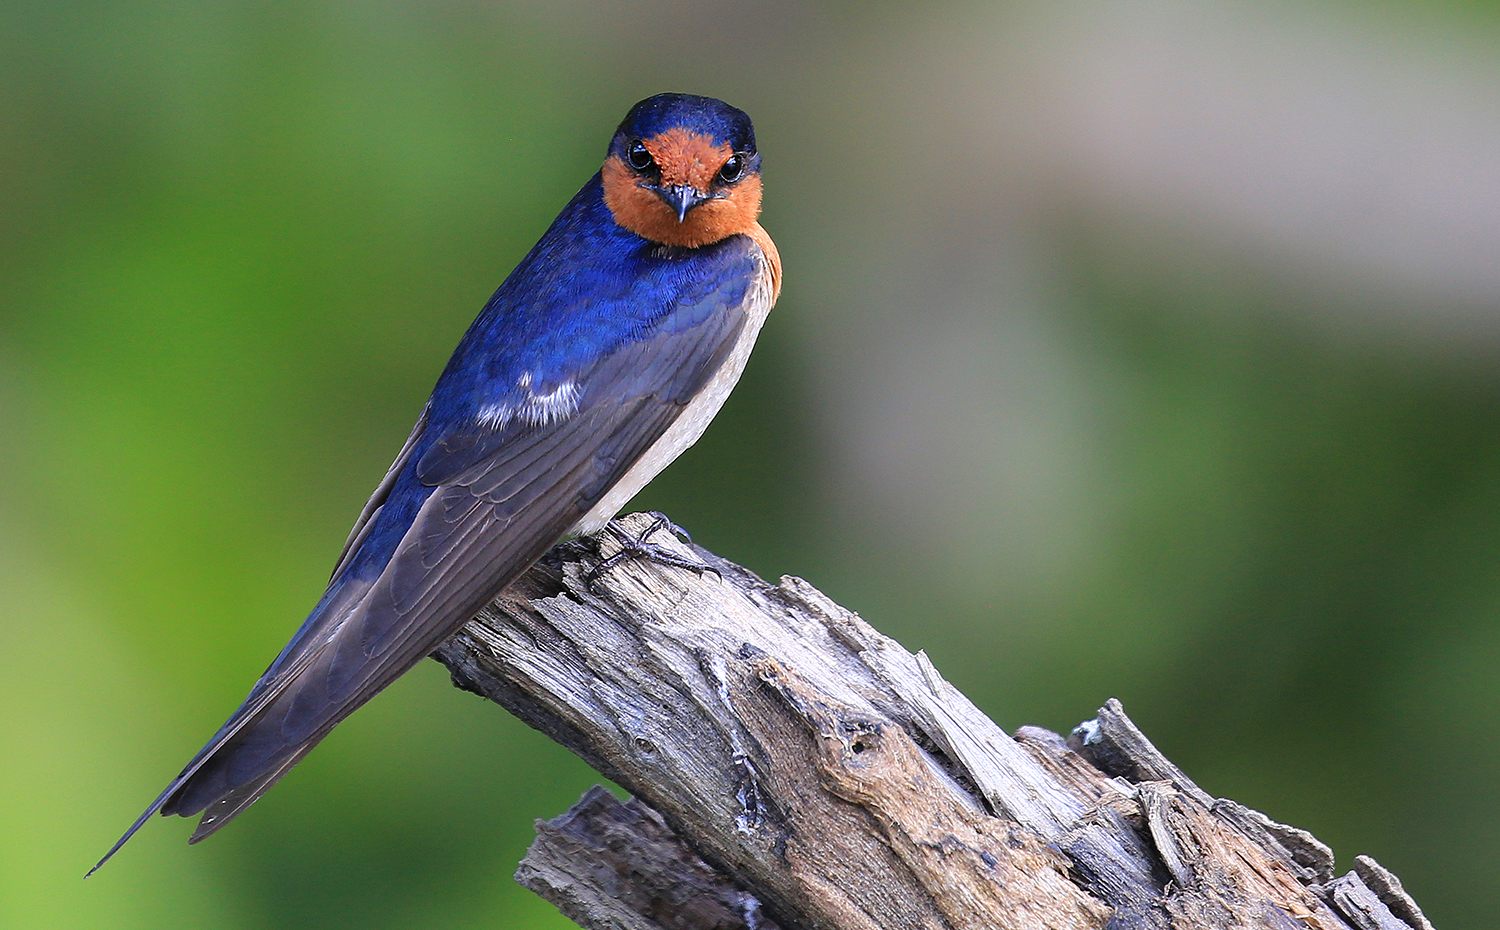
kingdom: Animalia
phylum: Chordata
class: Aves
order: Passeriformes
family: Hirundinidae
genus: Hirundo
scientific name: Hirundo neoxena
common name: Welcome swallow
